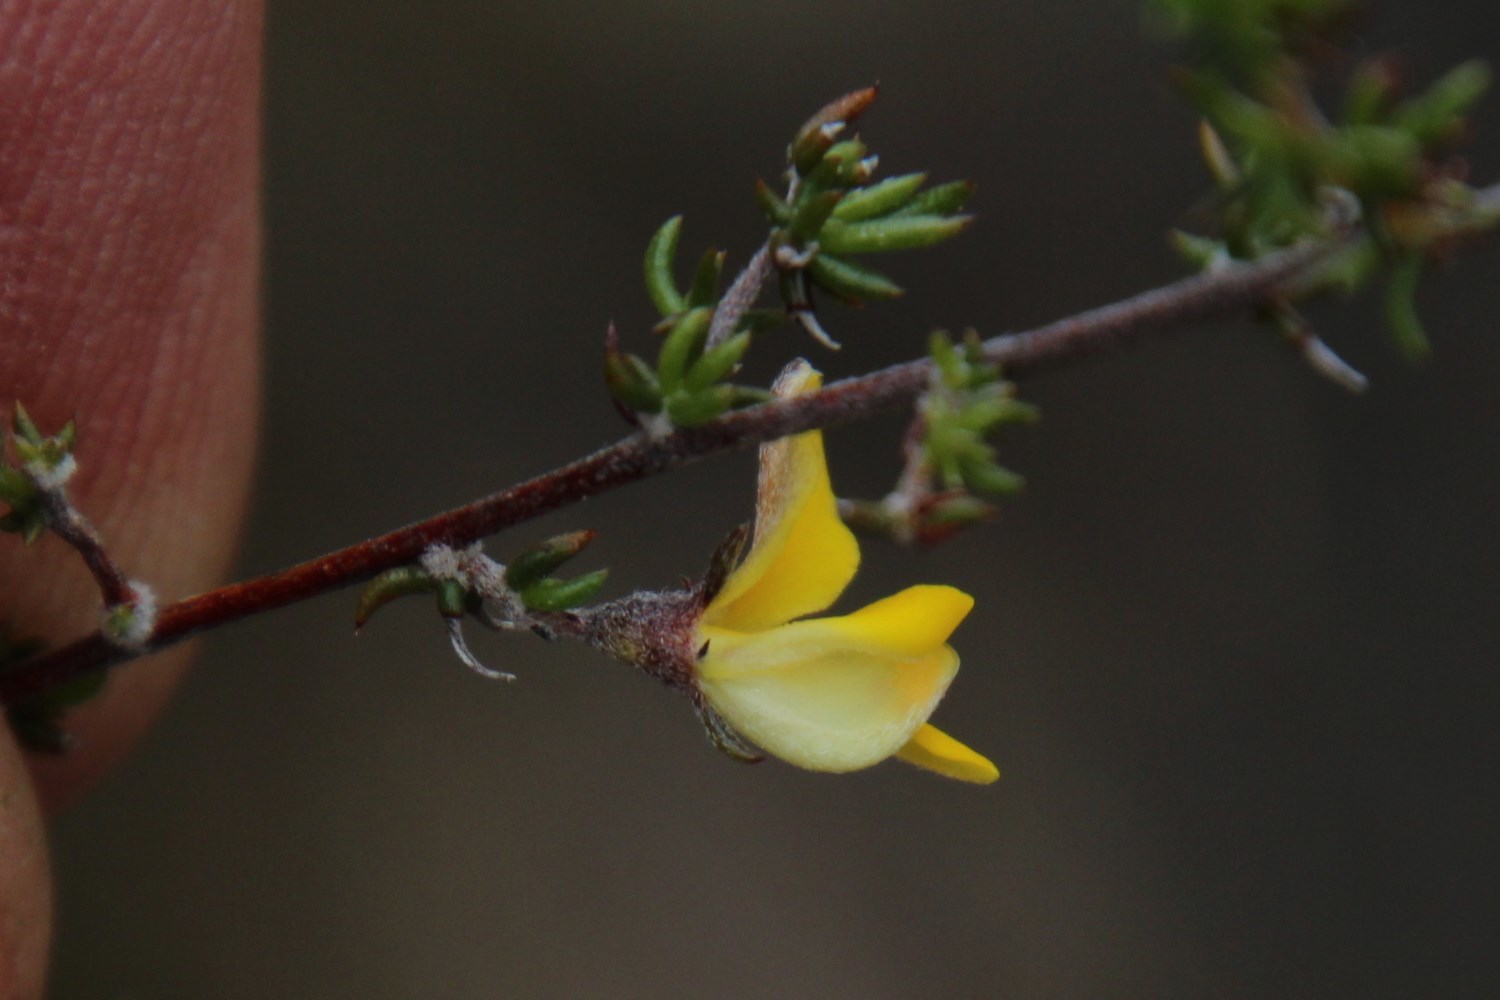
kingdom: Plantae
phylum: Tracheophyta
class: Magnoliopsida
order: Fabales
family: Fabaceae
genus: Aspalathus
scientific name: Aspalathus rubens
